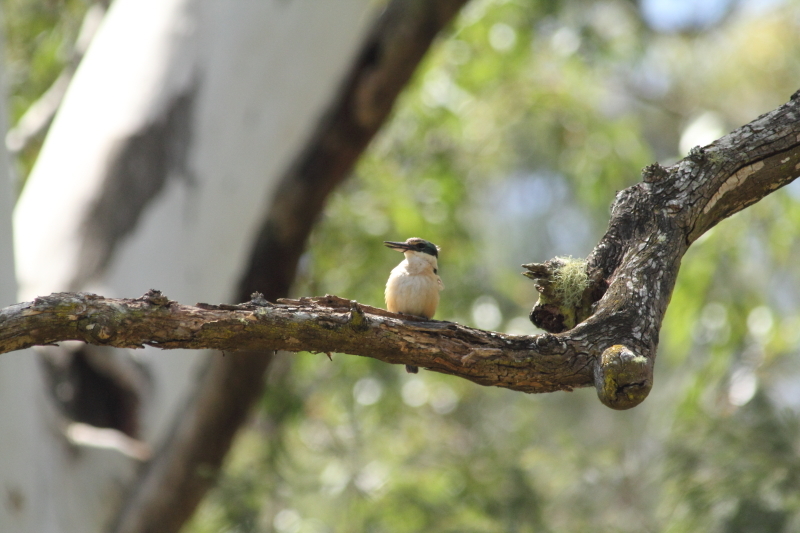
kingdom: Animalia
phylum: Chordata
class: Aves
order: Coraciiformes
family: Alcedinidae
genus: Todiramphus
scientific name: Todiramphus sanctus
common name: Sacred kingfisher
